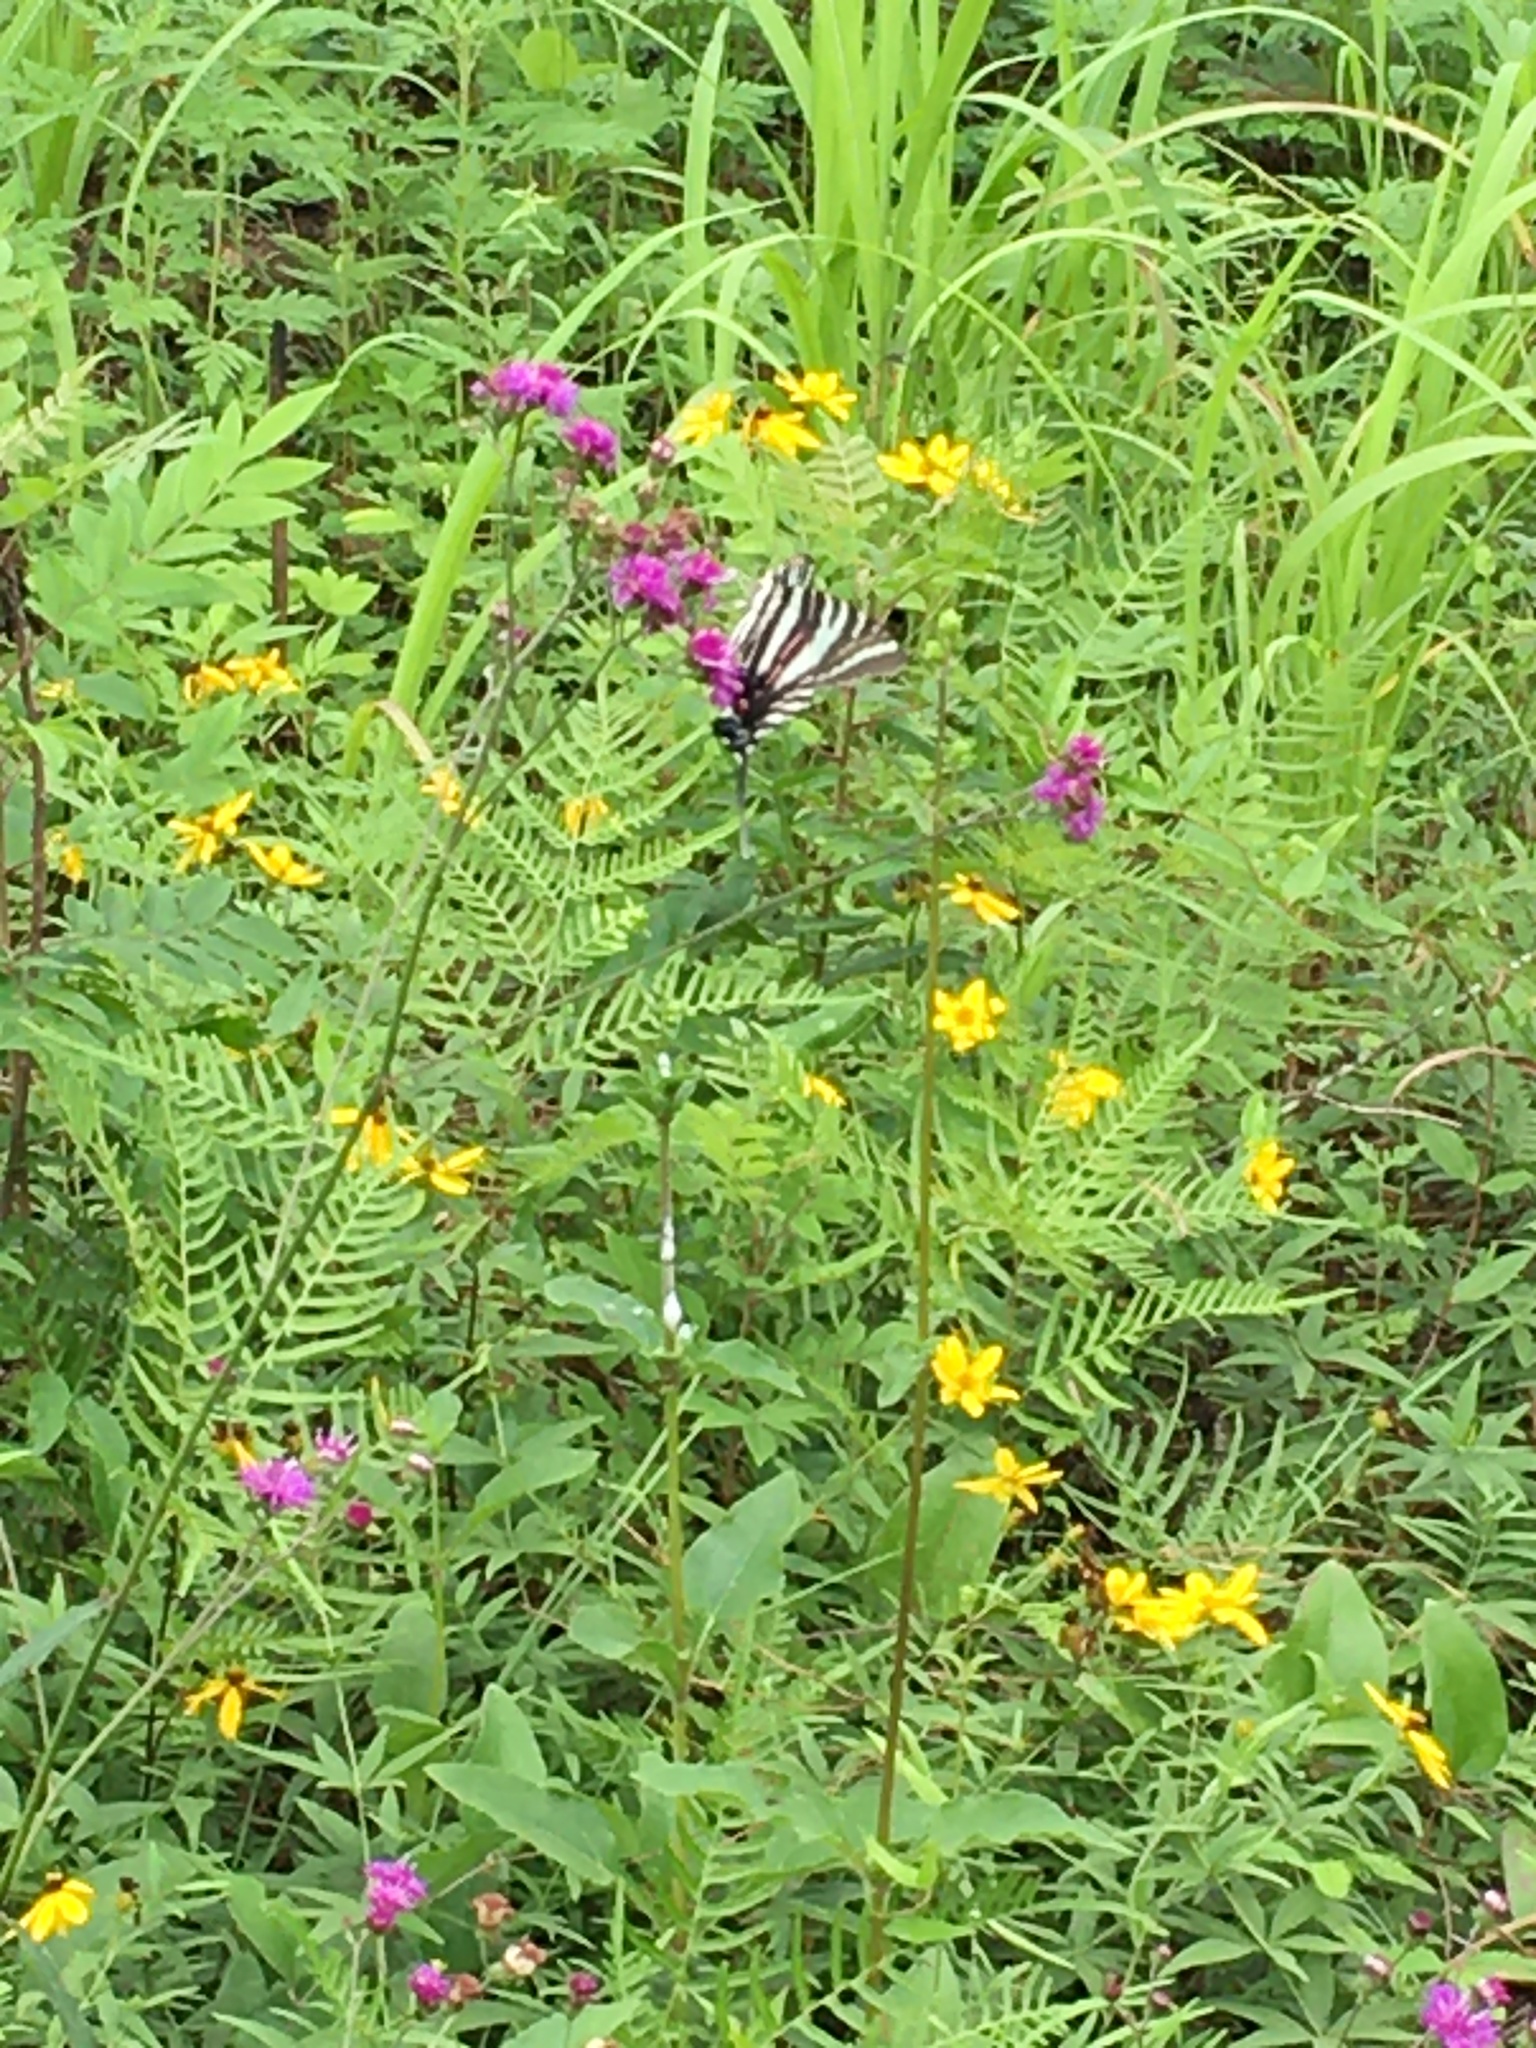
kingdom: Animalia
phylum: Arthropoda
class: Insecta
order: Lepidoptera
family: Papilionidae
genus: Protographium
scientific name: Protographium marcellus
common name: Zebra swallowtail
